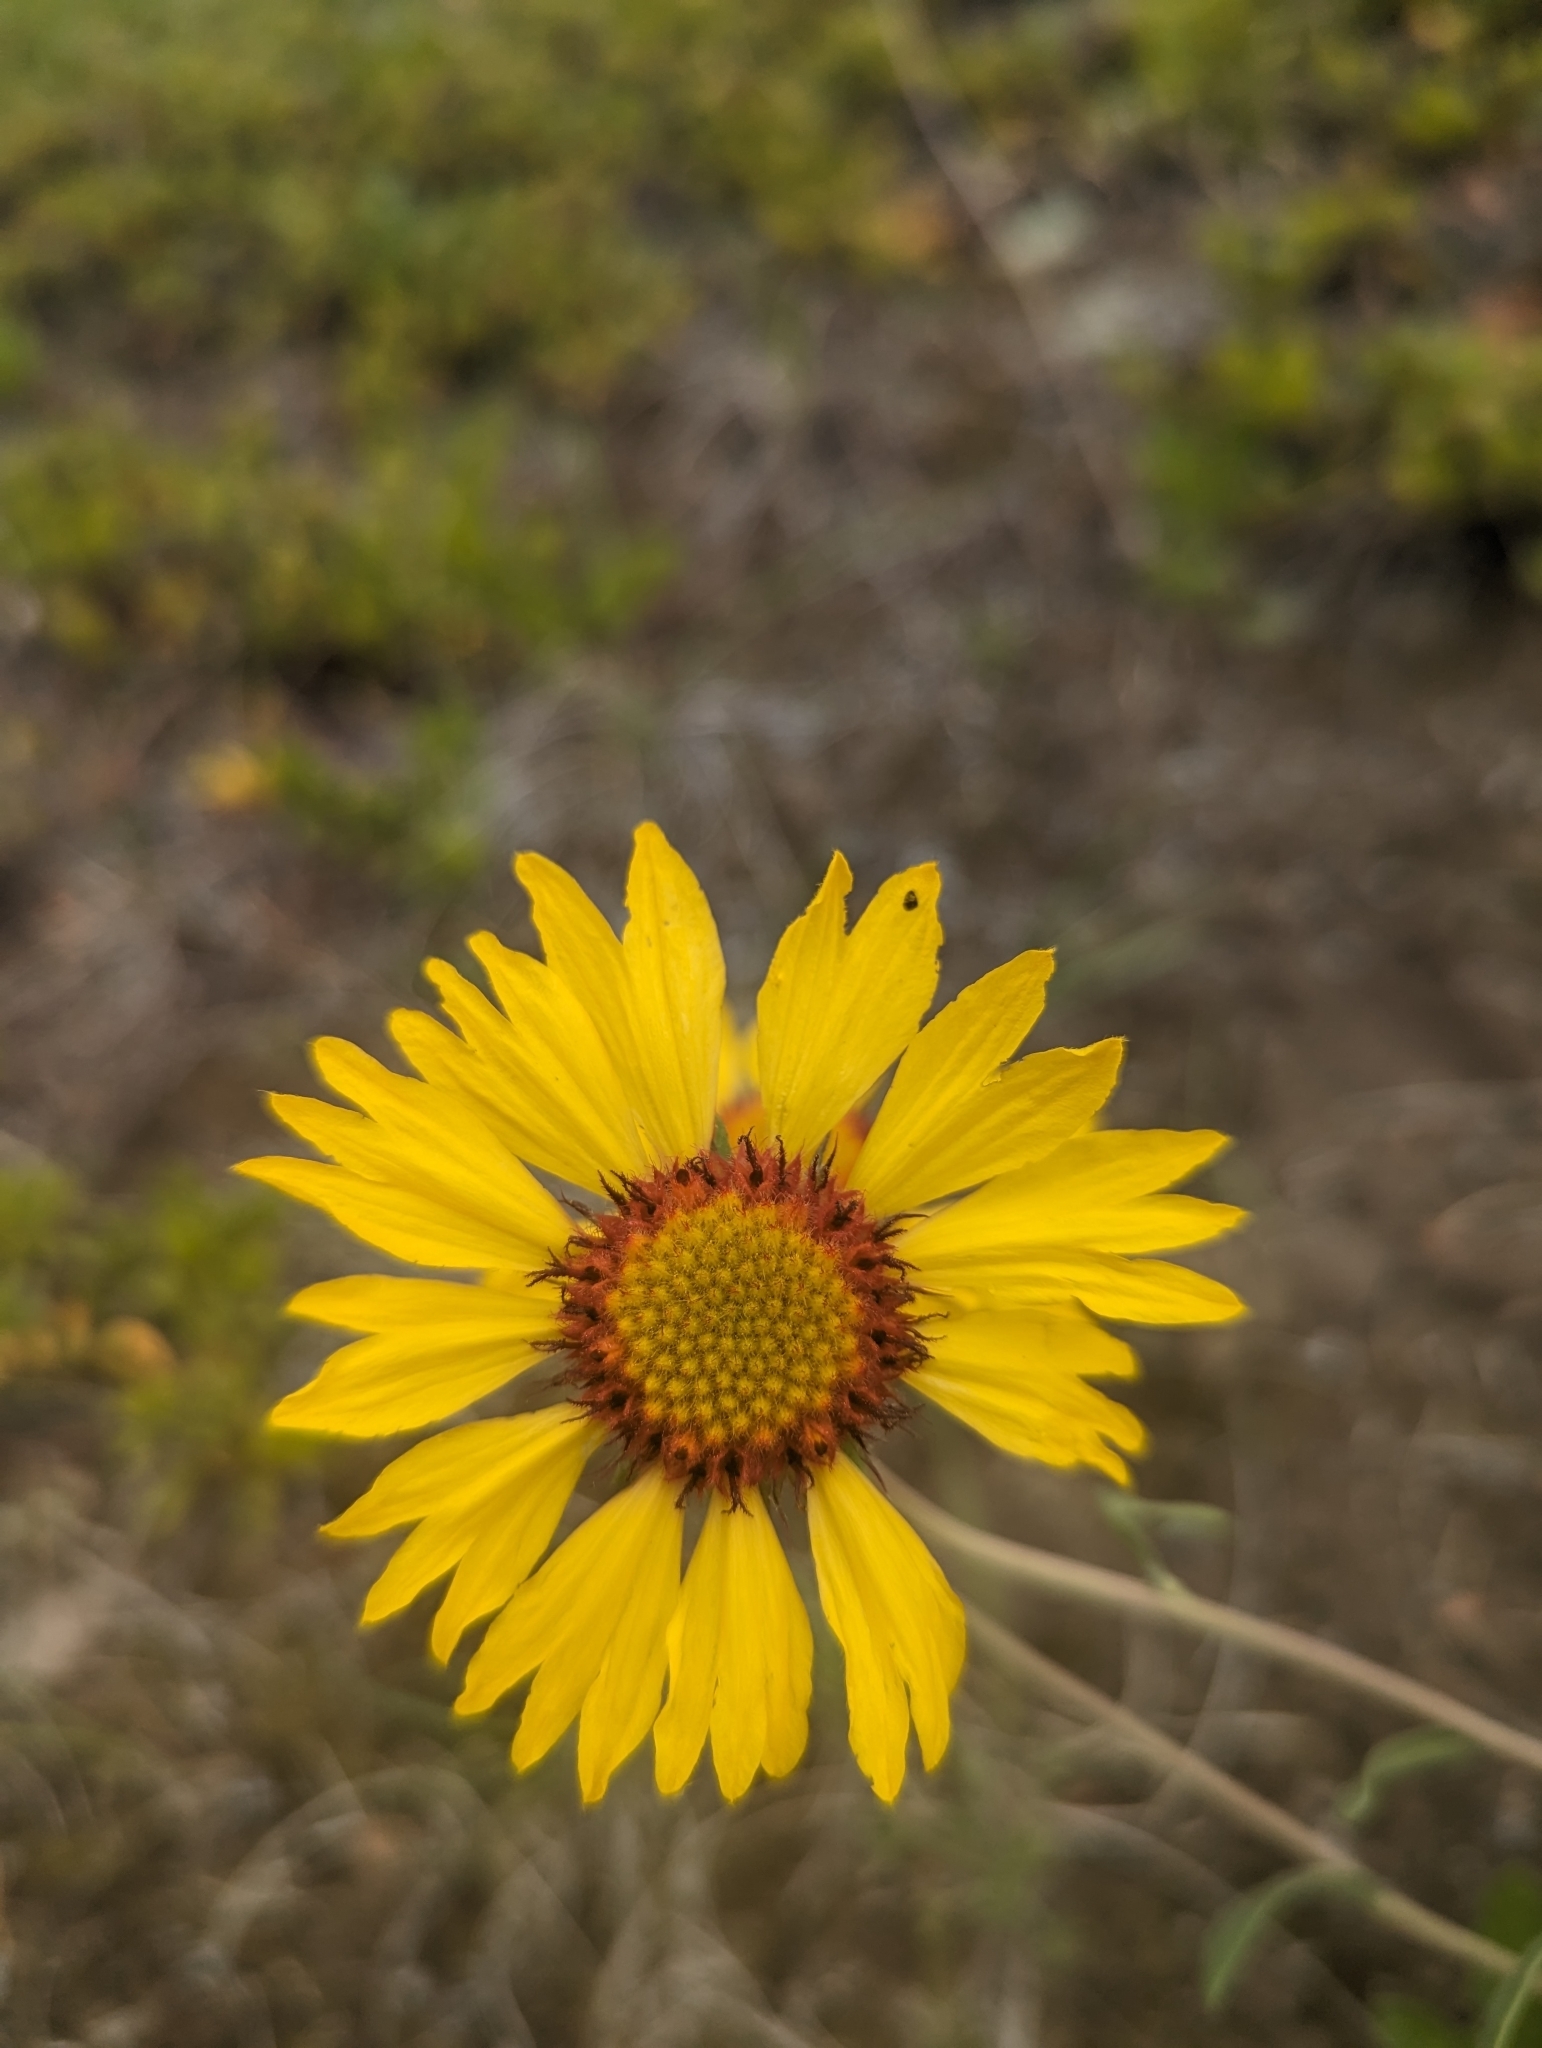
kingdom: Plantae
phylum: Tracheophyta
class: Magnoliopsida
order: Asterales
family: Asteraceae
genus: Gaillardia
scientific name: Gaillardia aristata
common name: Blanket-flower
